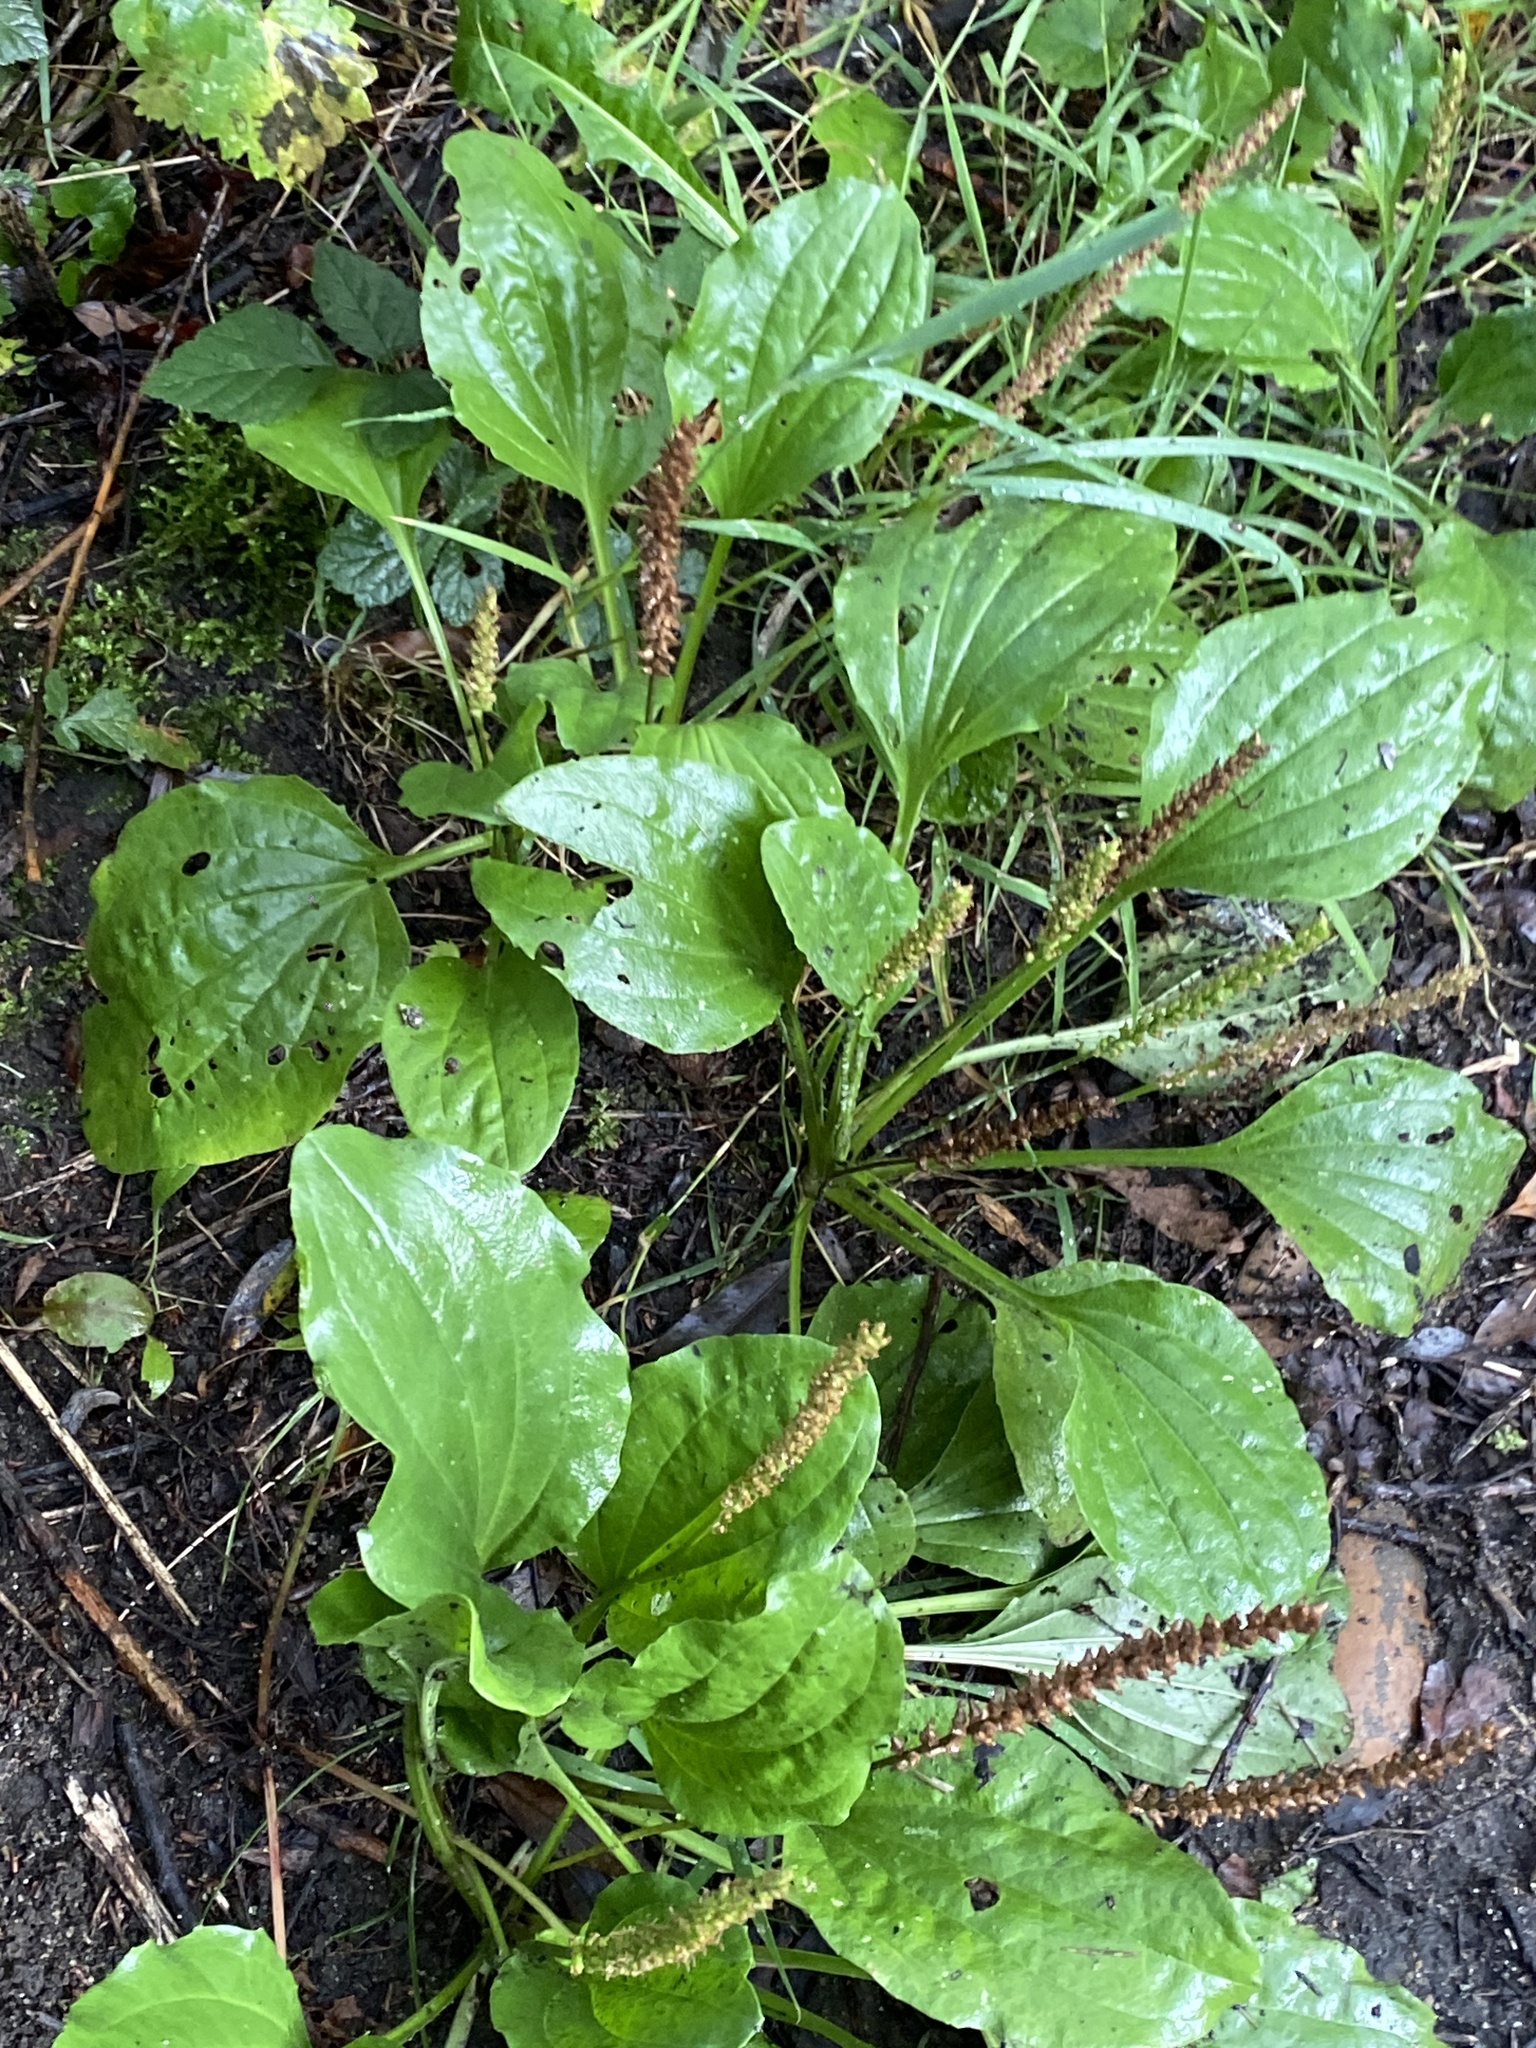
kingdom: Plantae
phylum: Tracheophyta
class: Magnoliopsida
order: Lamiales
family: Plantaginaceae
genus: Plantago
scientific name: Plantago major
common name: Common plantain
